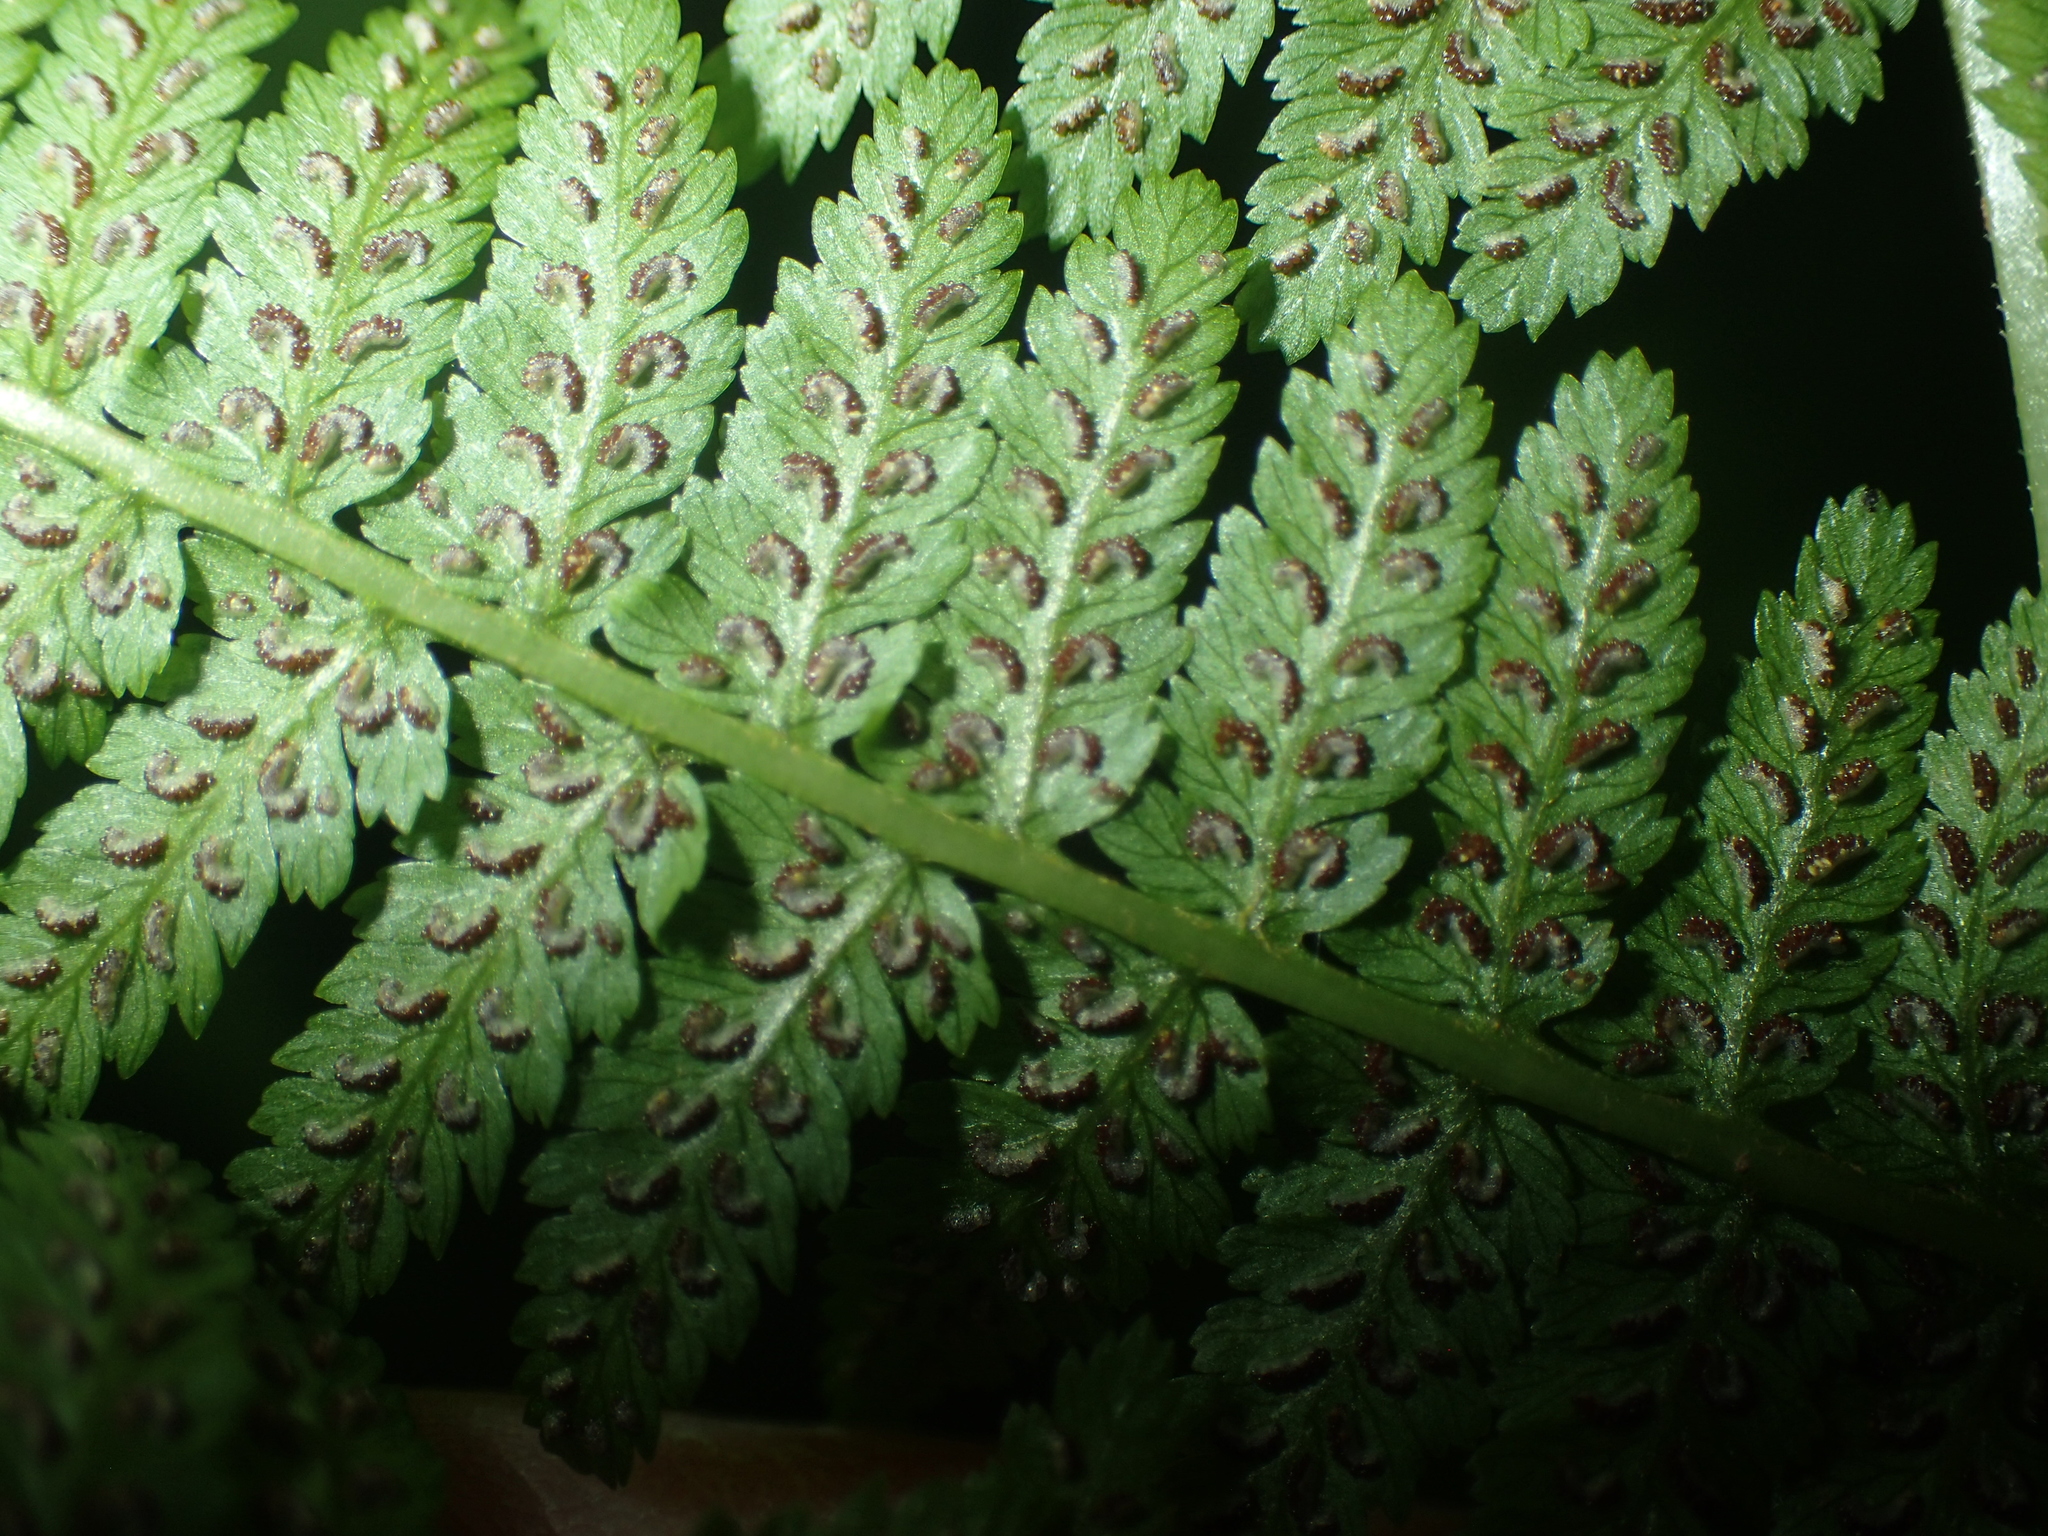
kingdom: Plantae
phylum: Tracheophyta
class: Polypodiopsida
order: Polypodiales
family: Athyriaceae
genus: Athyrium
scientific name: Athyrium asplenioides
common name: Southern lady fern
